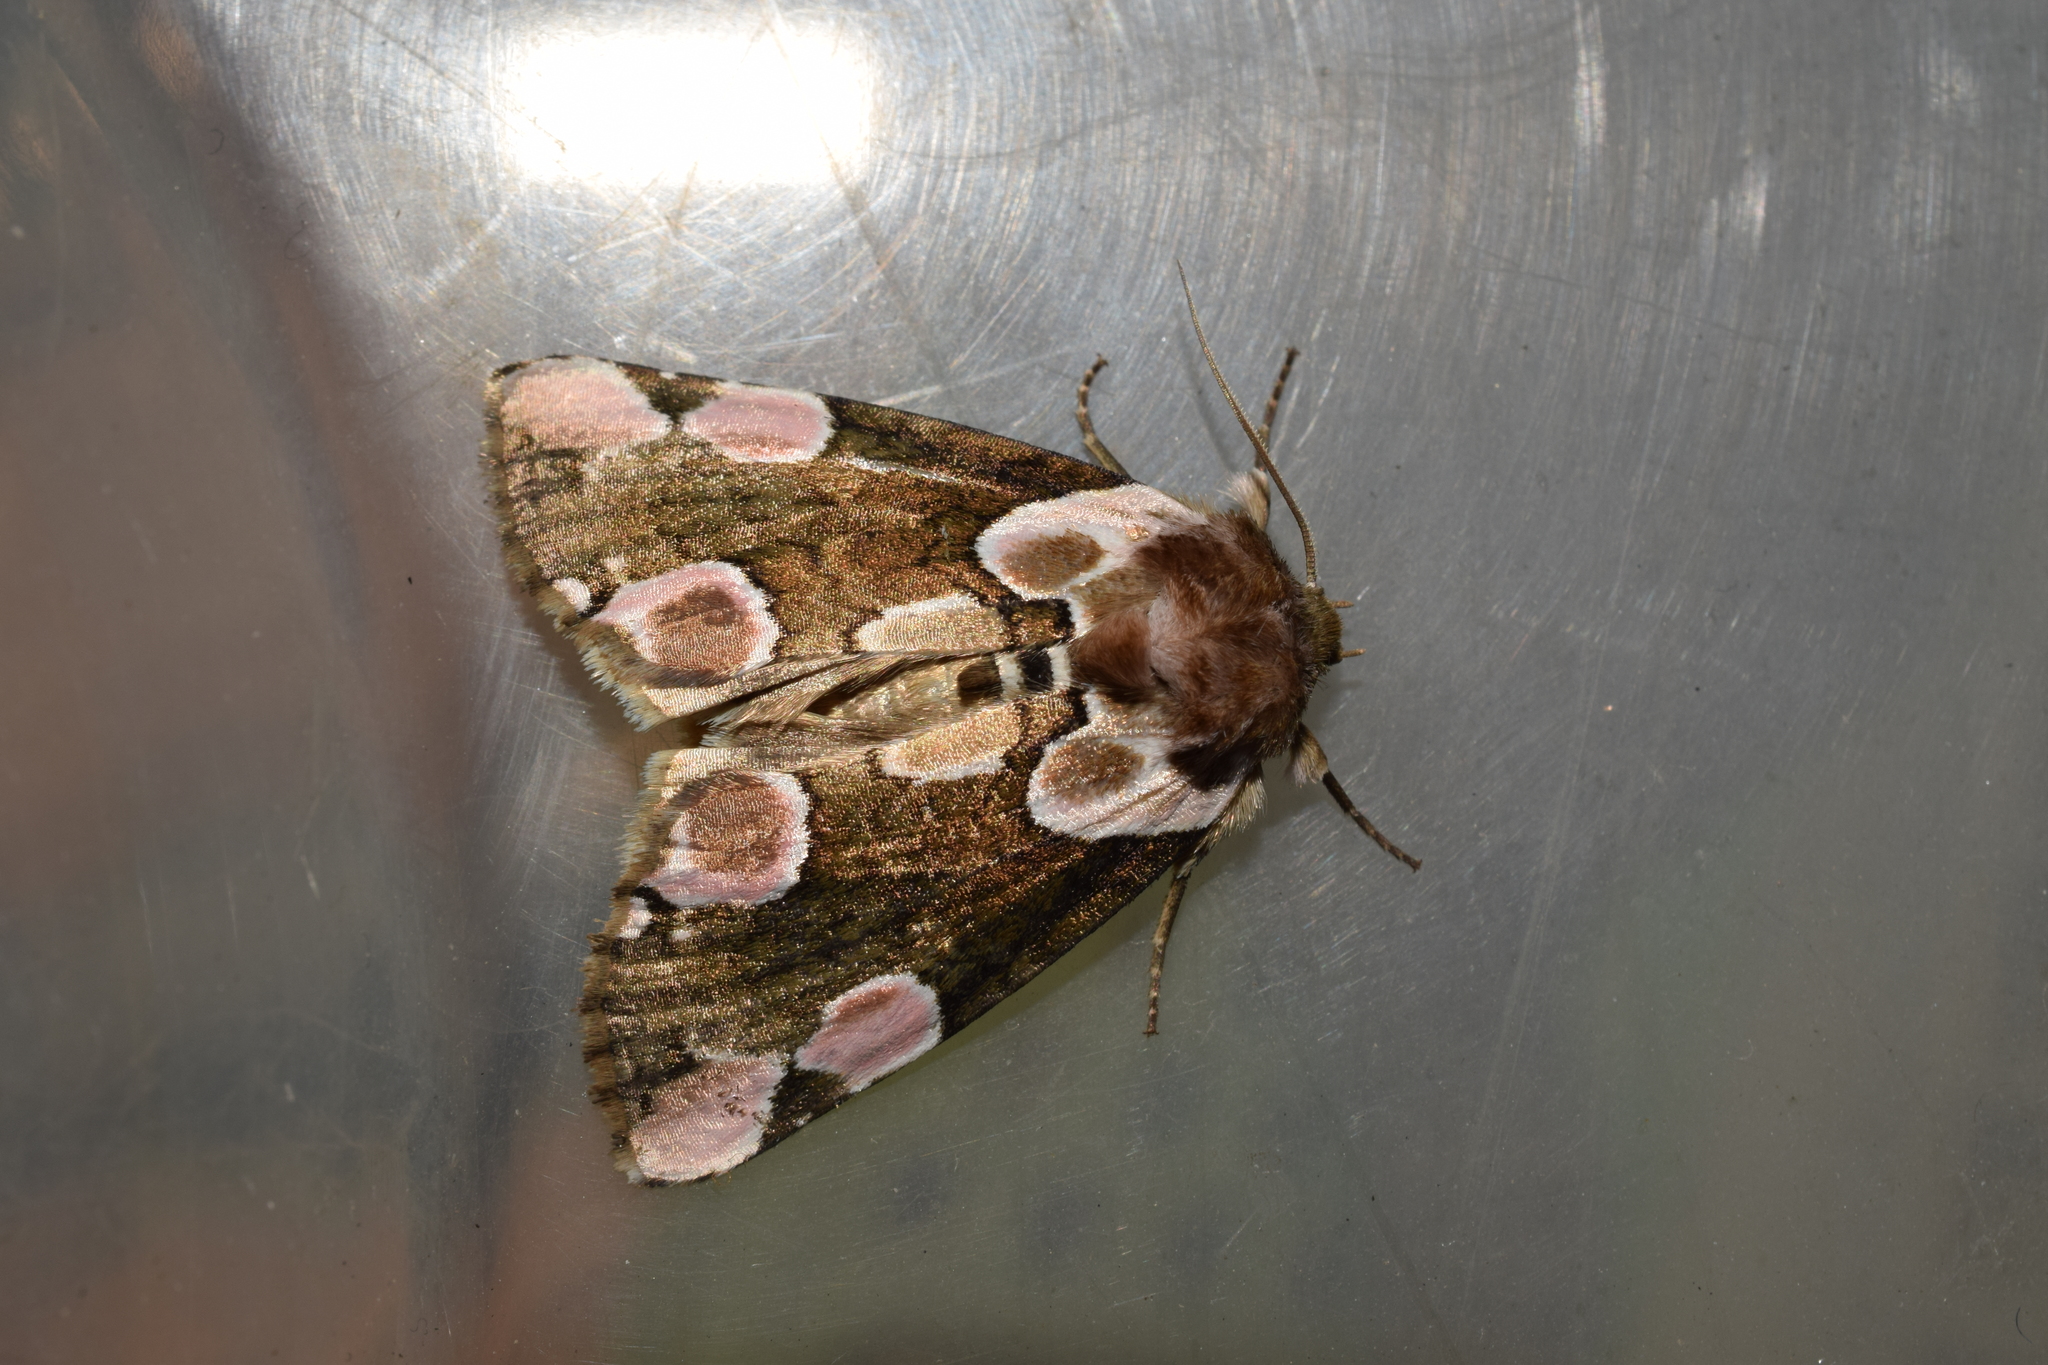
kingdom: Animalia
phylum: Arthropoda
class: Insecta
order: Lepidoptera
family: Drepanidae
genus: Thyatira
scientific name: Thyatira batis
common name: Peach blossom
